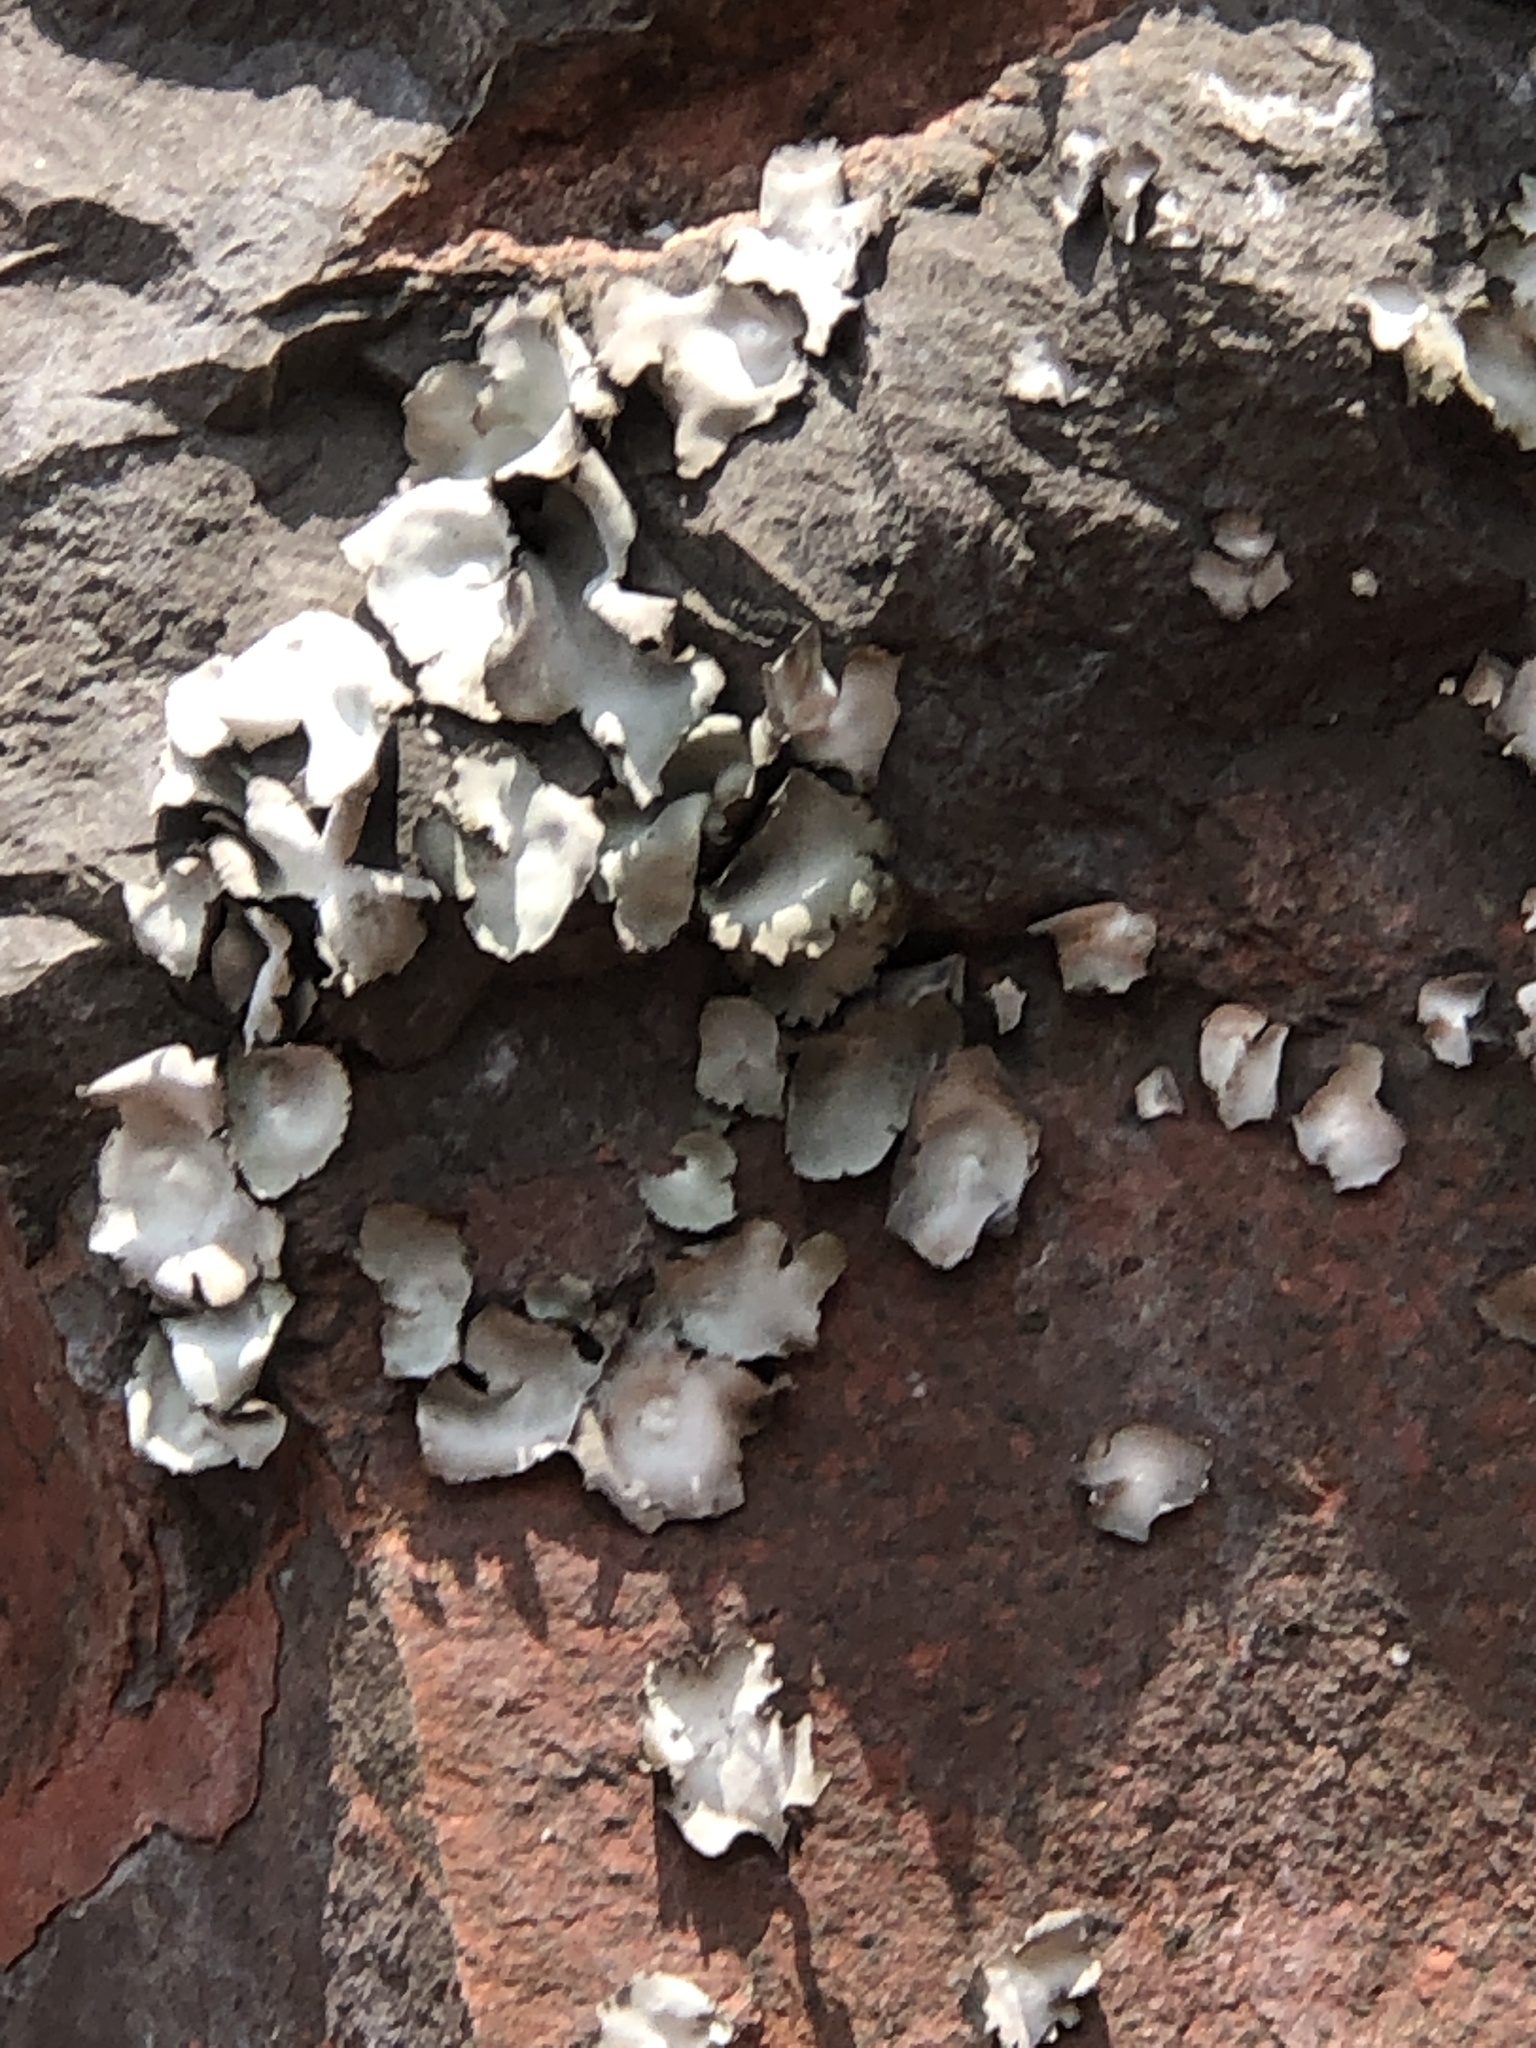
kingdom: Fungi
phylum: Ascomycota
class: Lecanoromycetes
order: Umbilicariales
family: Umbilicariaceae
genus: Umbilicaria
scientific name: Umbilicaria americana
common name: Frosted rock tripe
